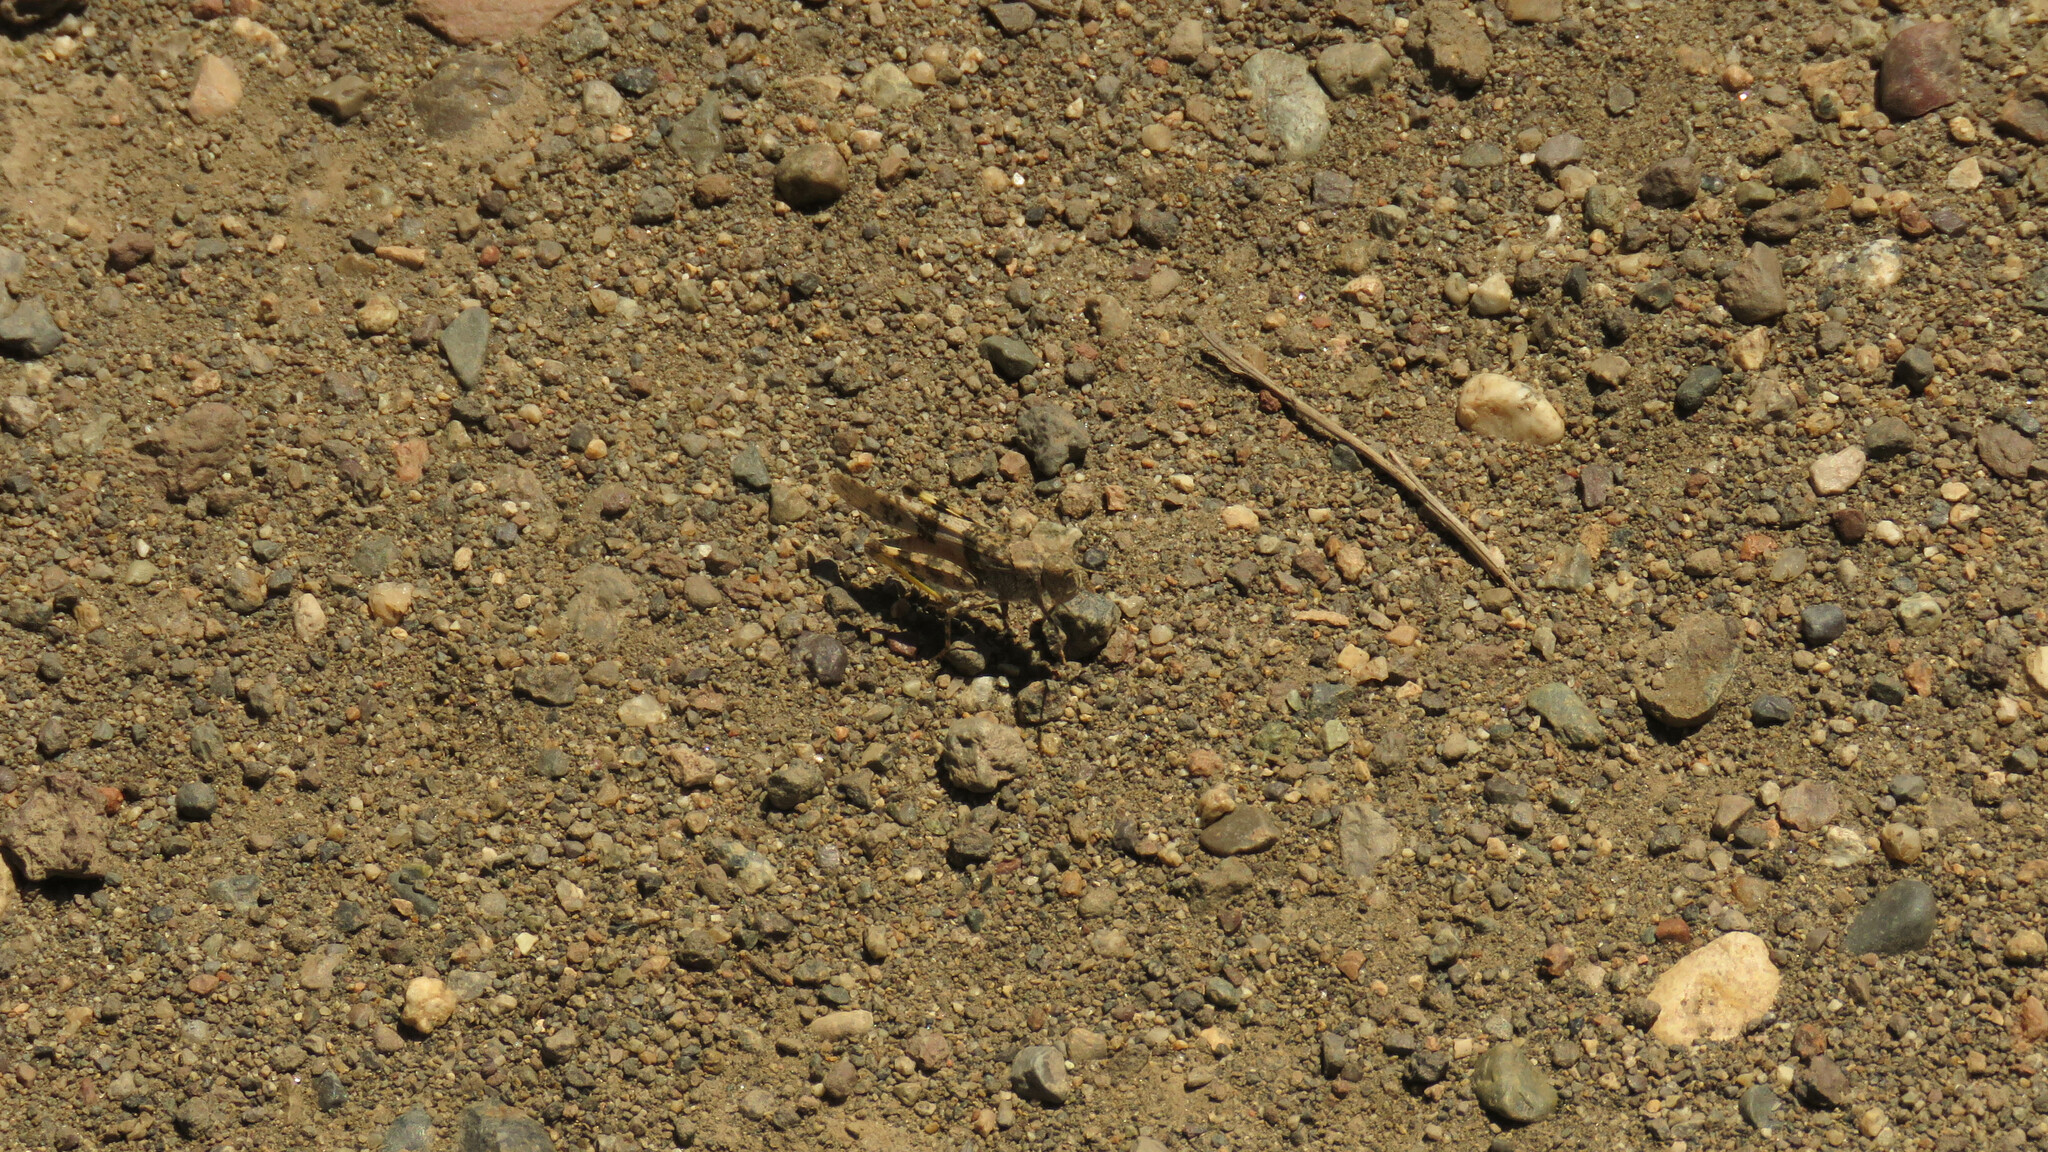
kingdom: Animalia
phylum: Arthropoda
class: Insecta
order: Orthoptera
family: Acrididae
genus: Trimerotropis
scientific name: Trimerotropis pallidipennis
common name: Pallid-winged grasshopper
